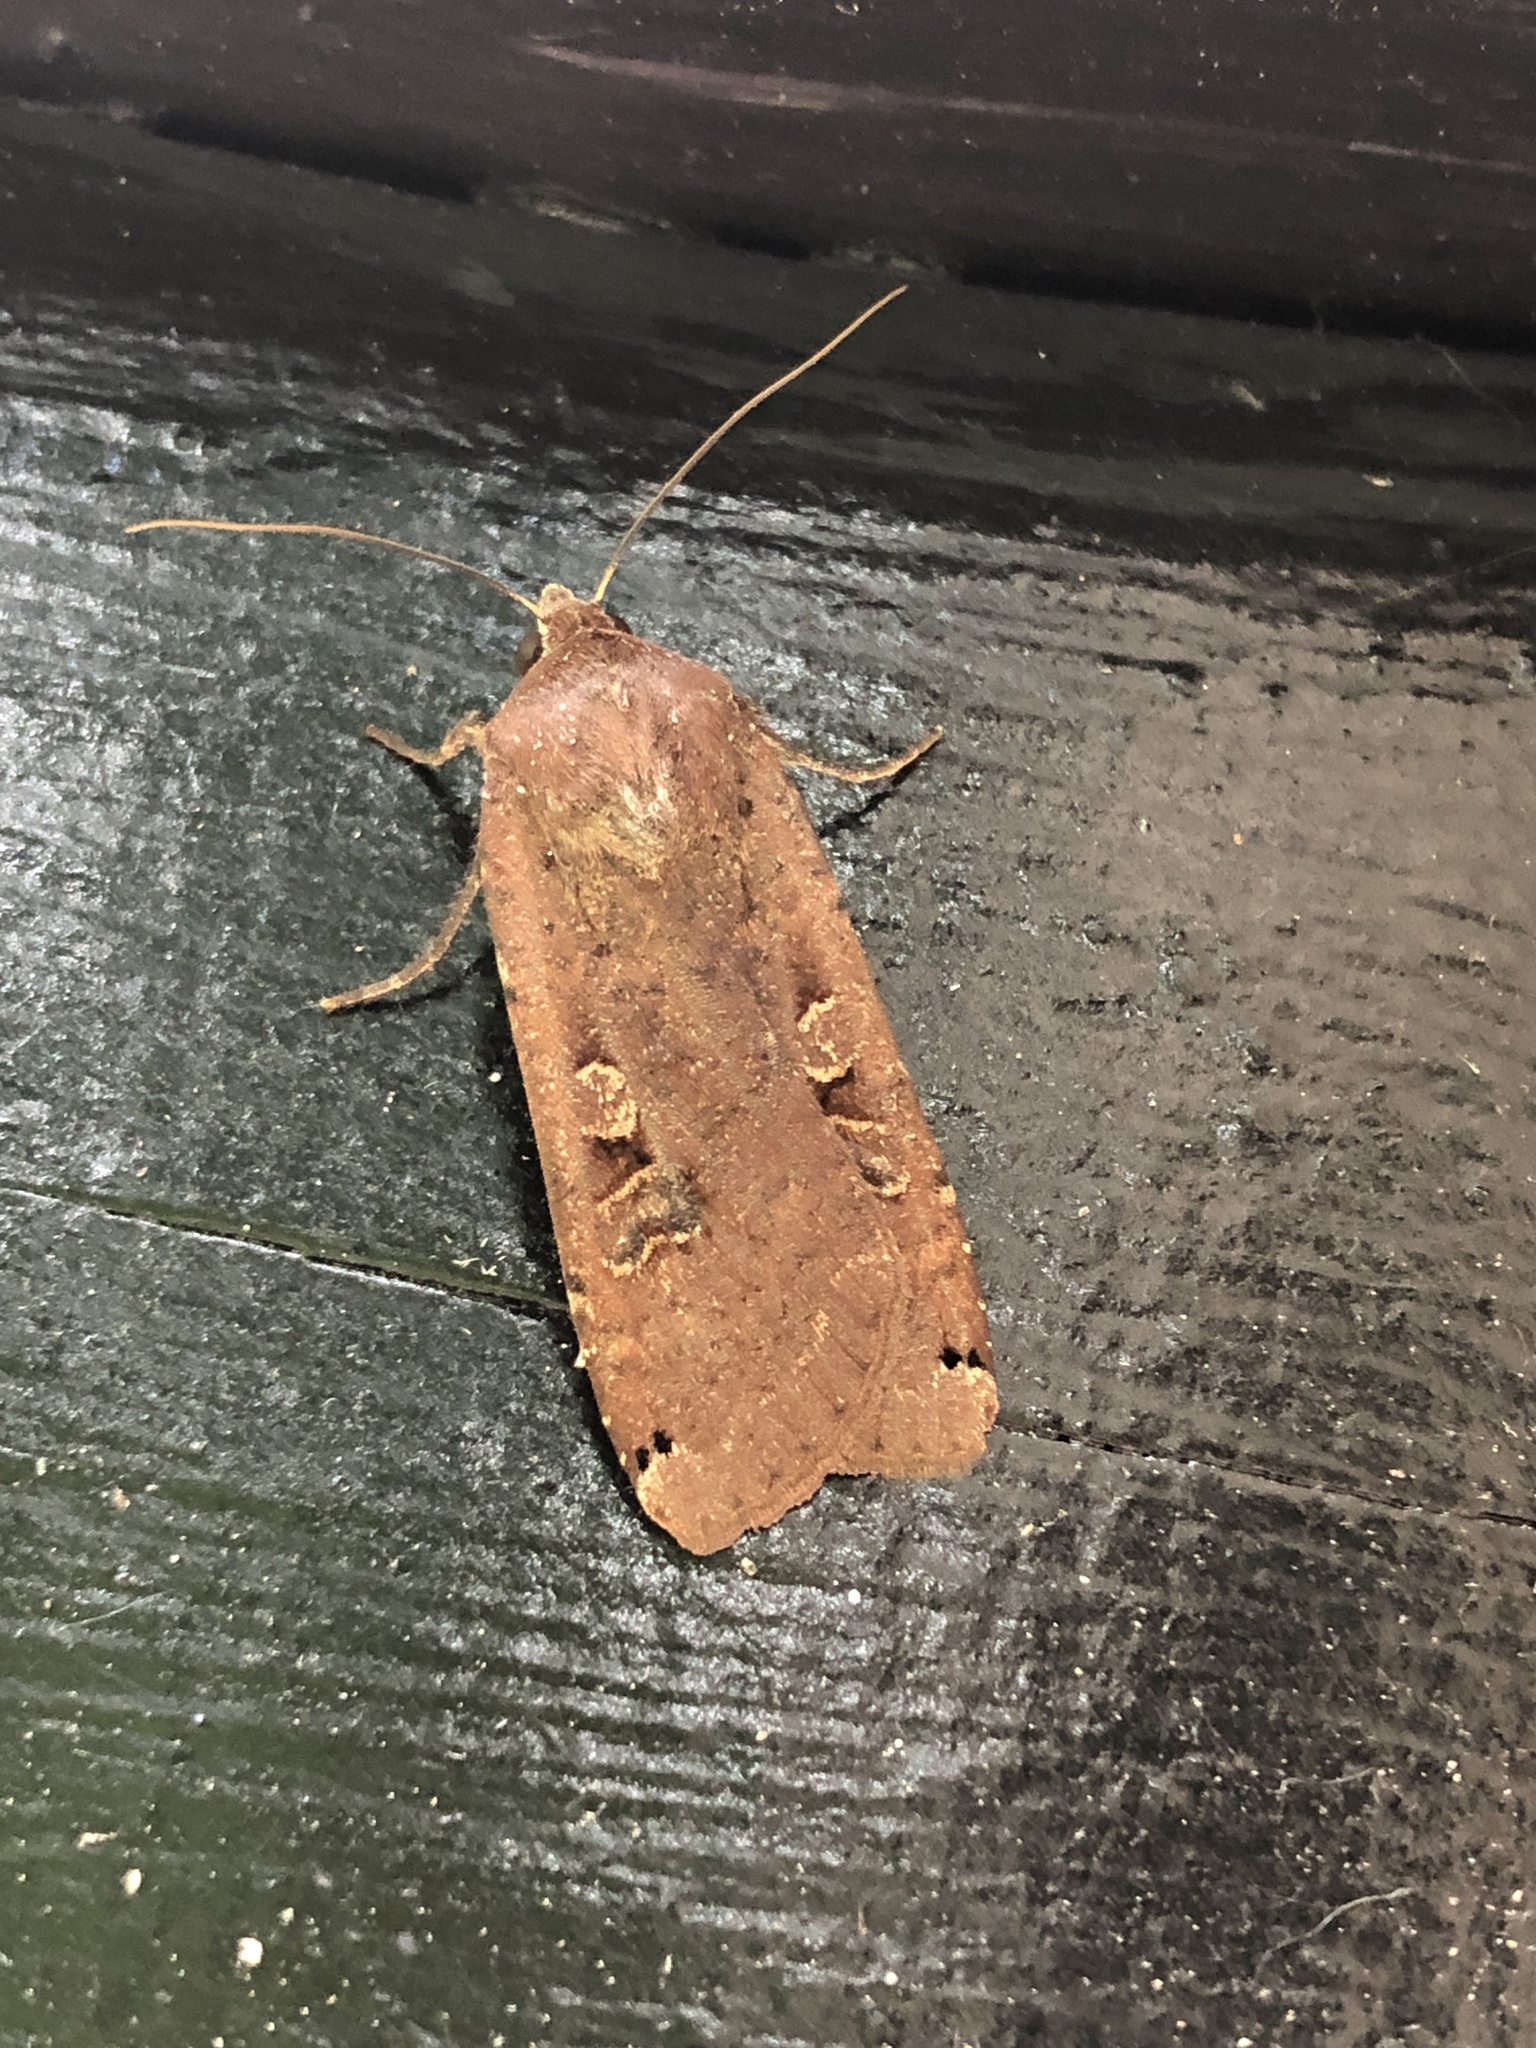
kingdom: Animalia
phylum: Arthropoda
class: Insecta
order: Lepidoptera
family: Noctuidae
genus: Noctua
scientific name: Noctua pronuba
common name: Large yellow underwing
